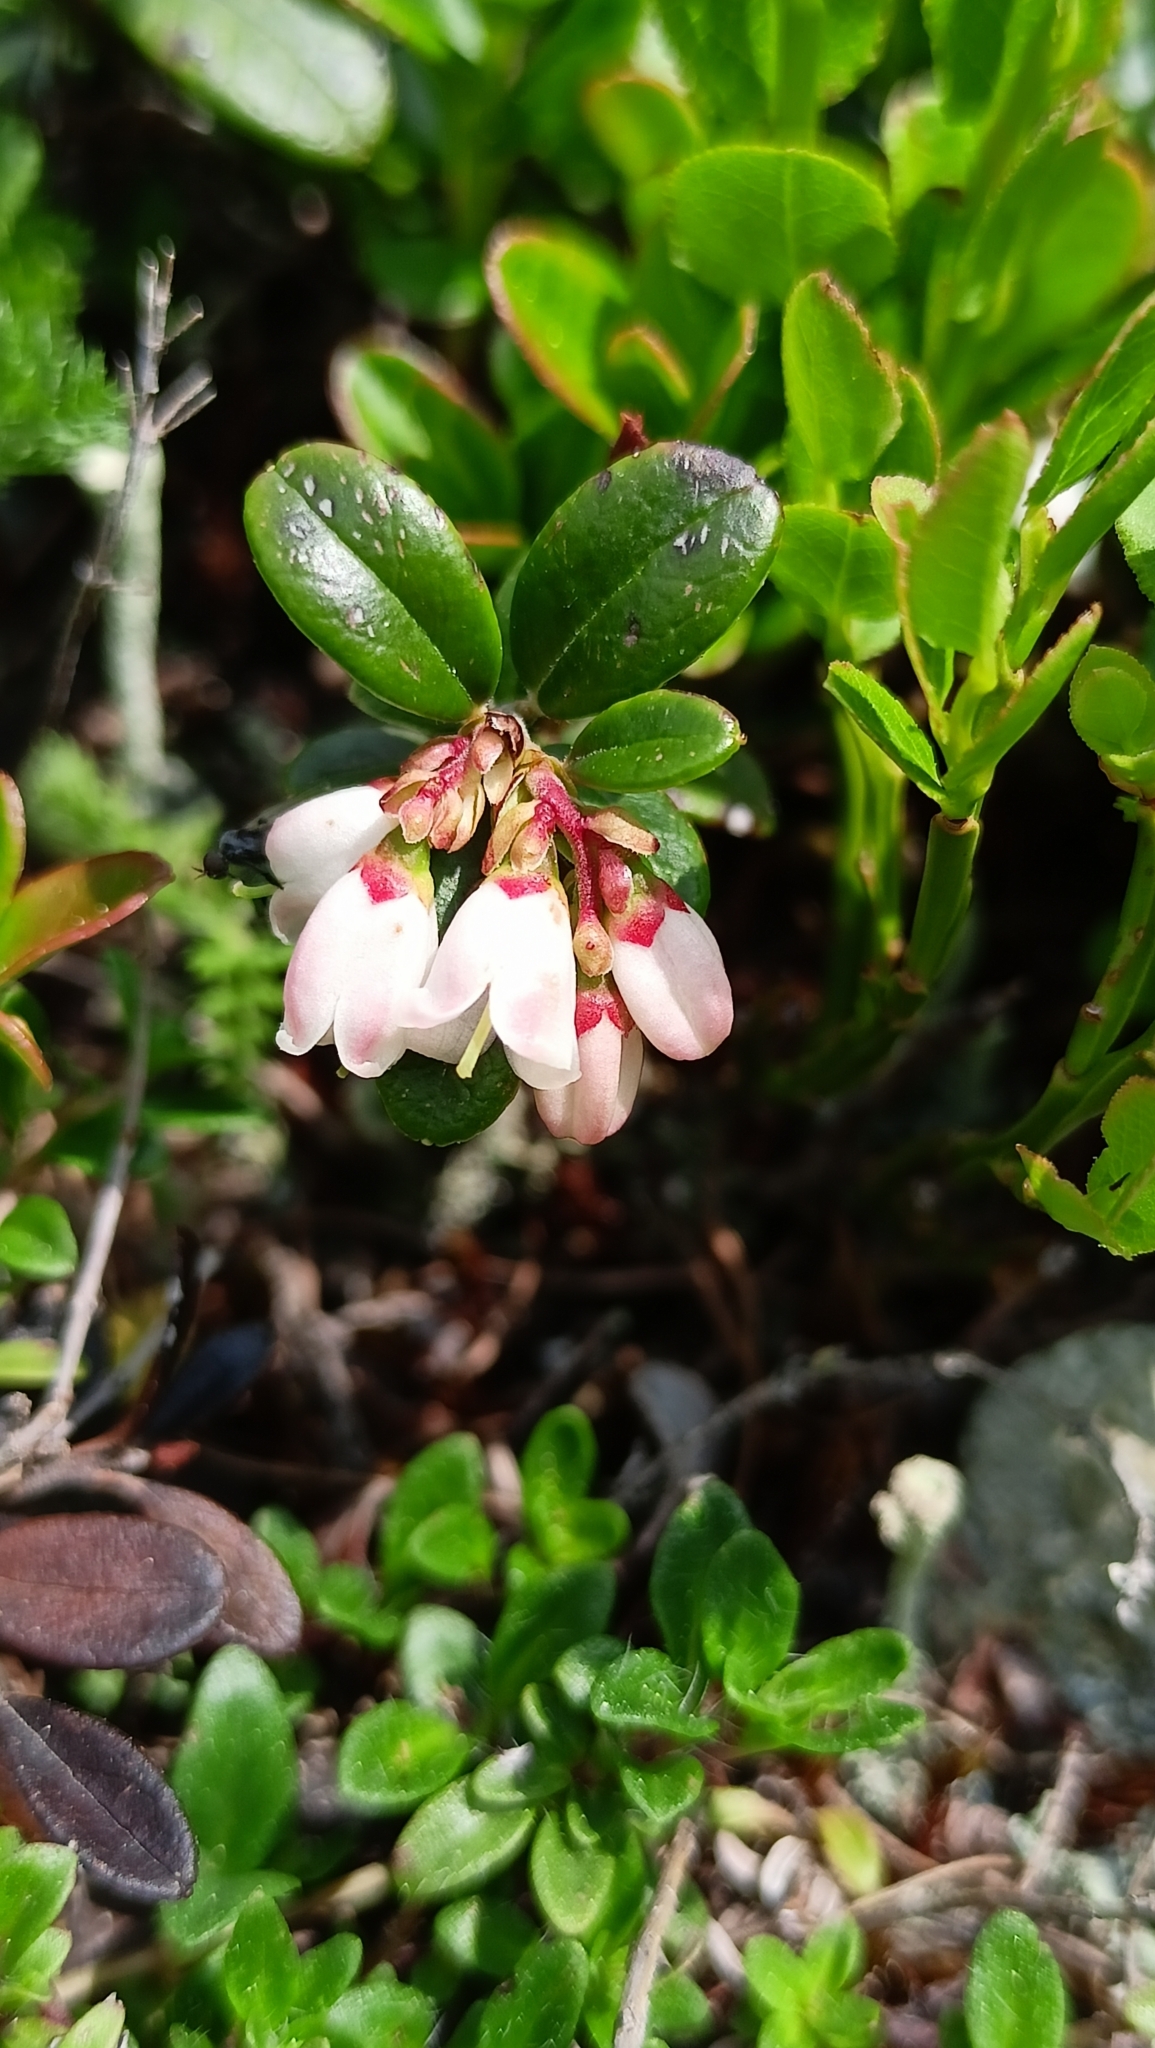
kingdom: Plantae
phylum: Tracheophyta
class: Magnoliopsida
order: Ericales
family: Ericaceae
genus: Vaccinium
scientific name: Vaccinium vitis-idaea
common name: Cowberry
